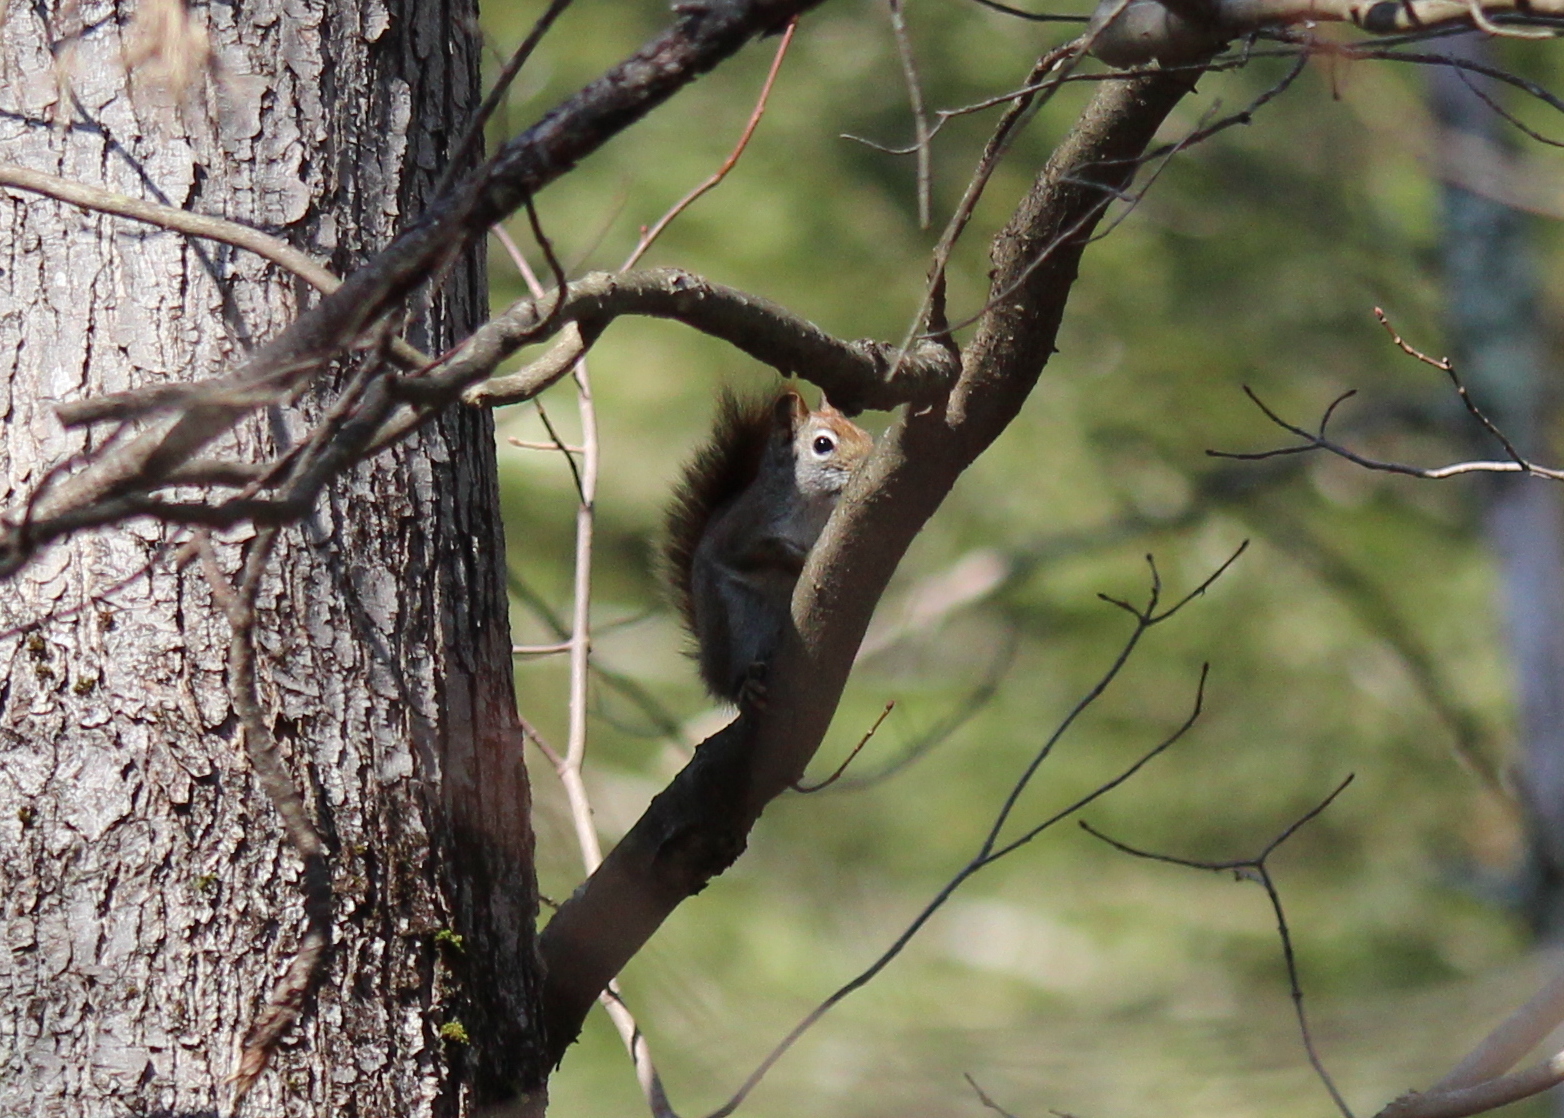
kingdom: Animalia
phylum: Chordata
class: Mammalia
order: Rodentia
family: Sciuridae
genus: Tamiasciurus
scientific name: Tamiasciurus hudsonicus
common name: Red squirrel
